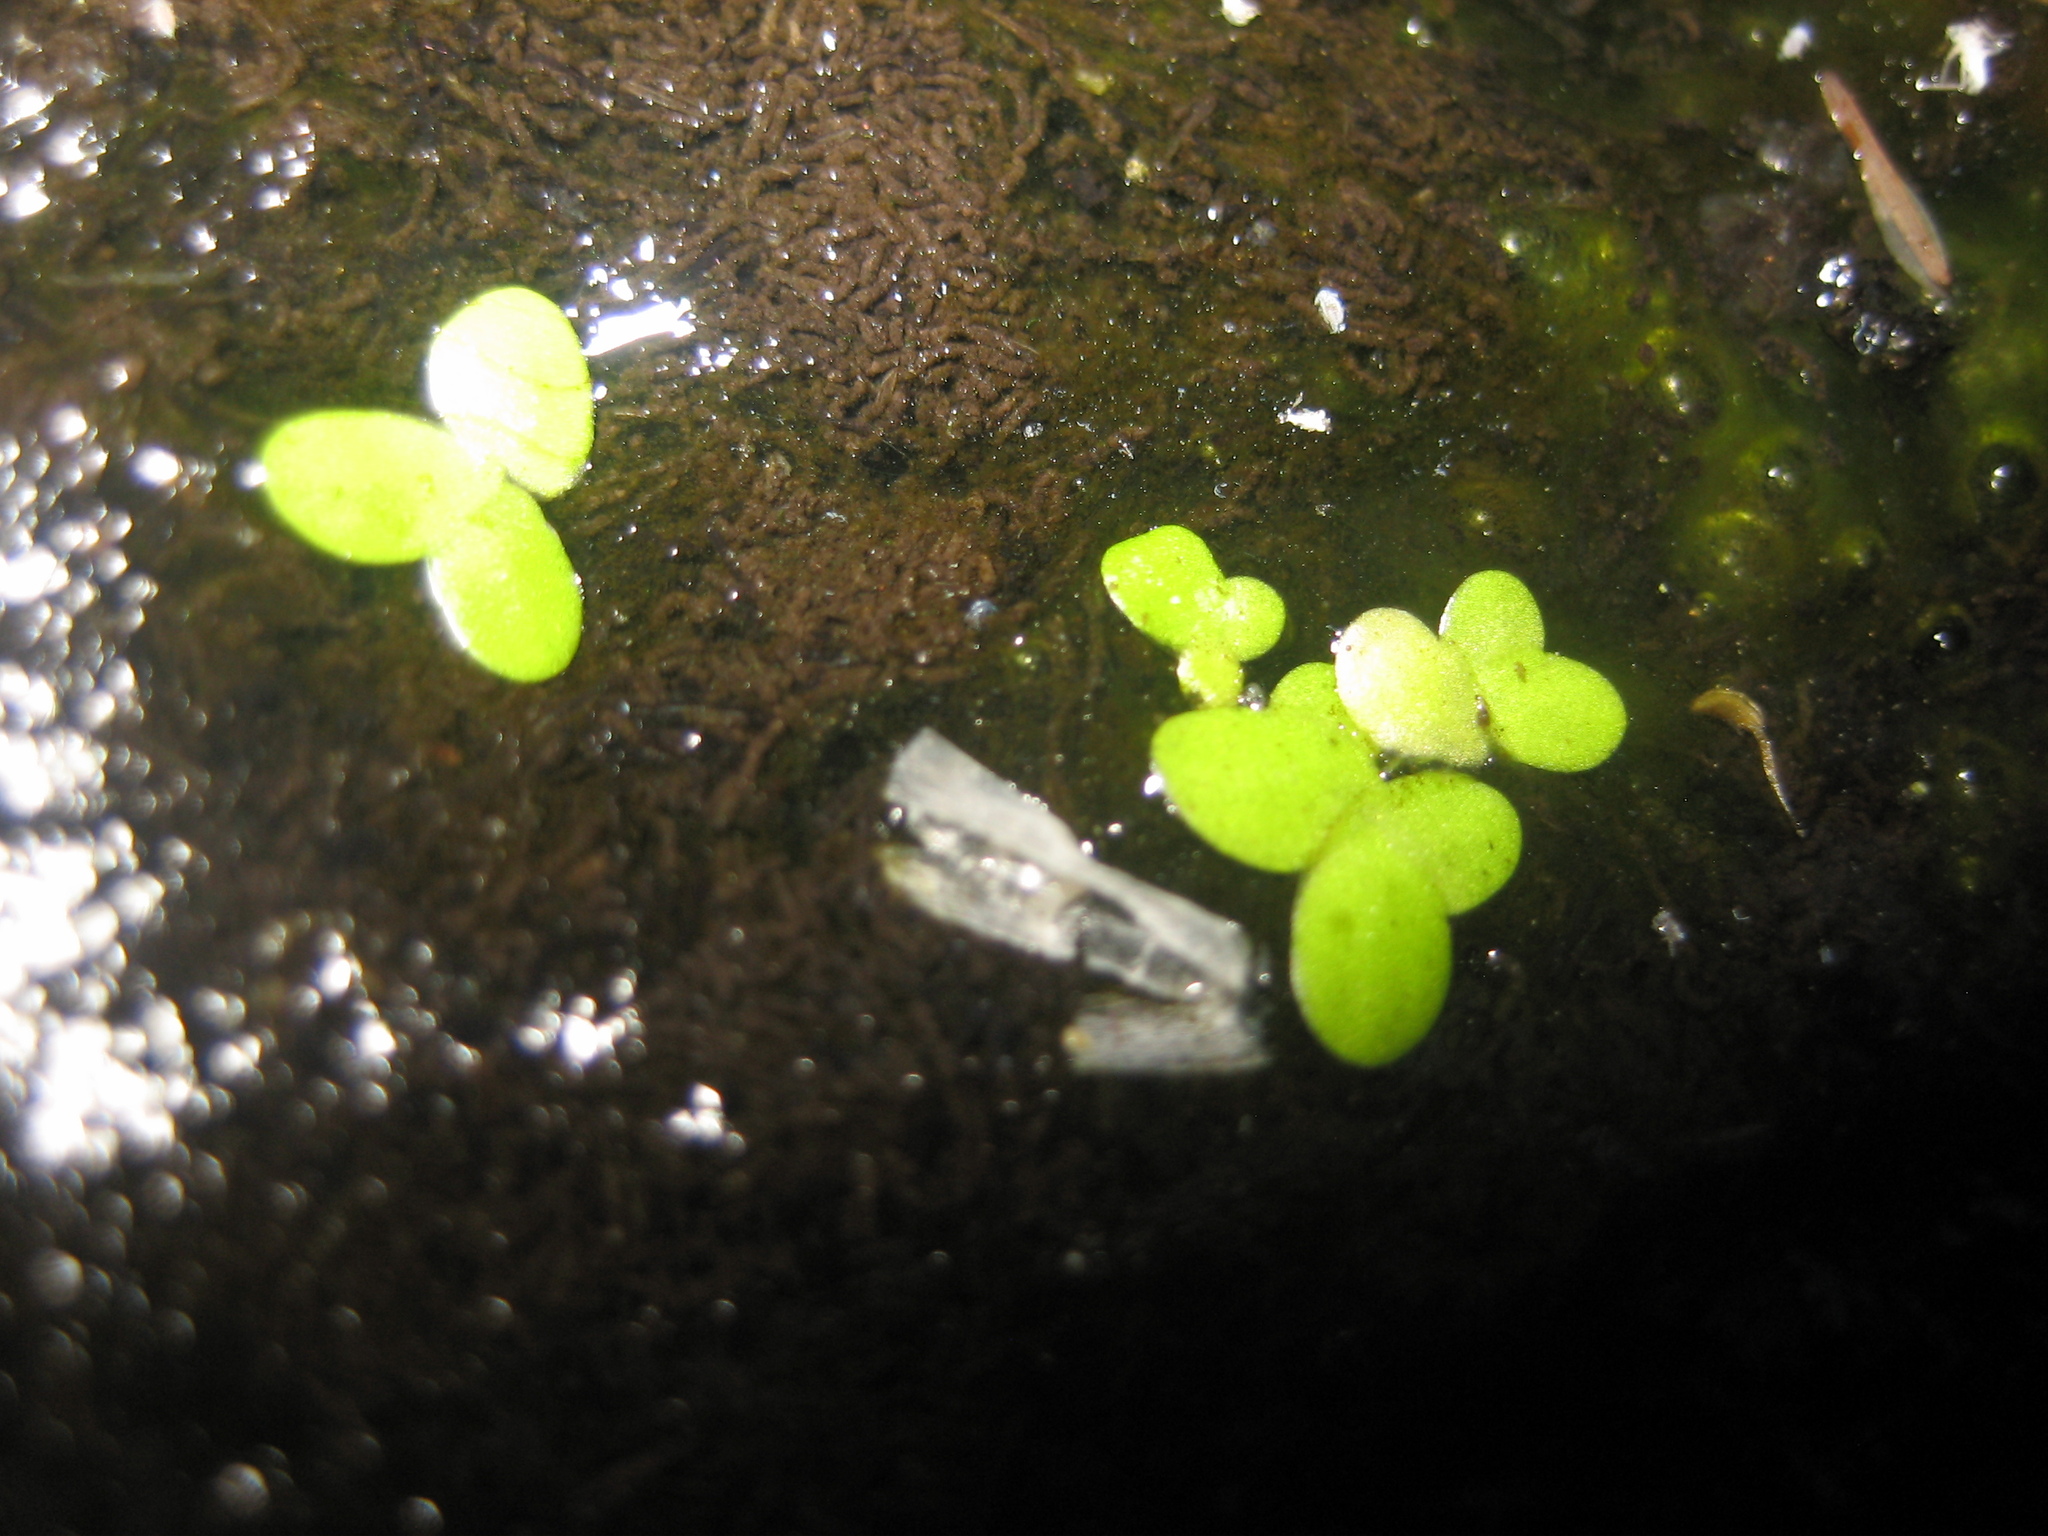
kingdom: Plantae
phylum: Tracheophyta
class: Liliopsida
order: Alismatales
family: Araceae
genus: Lemna
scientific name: Lemna minor
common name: Common duckweed
